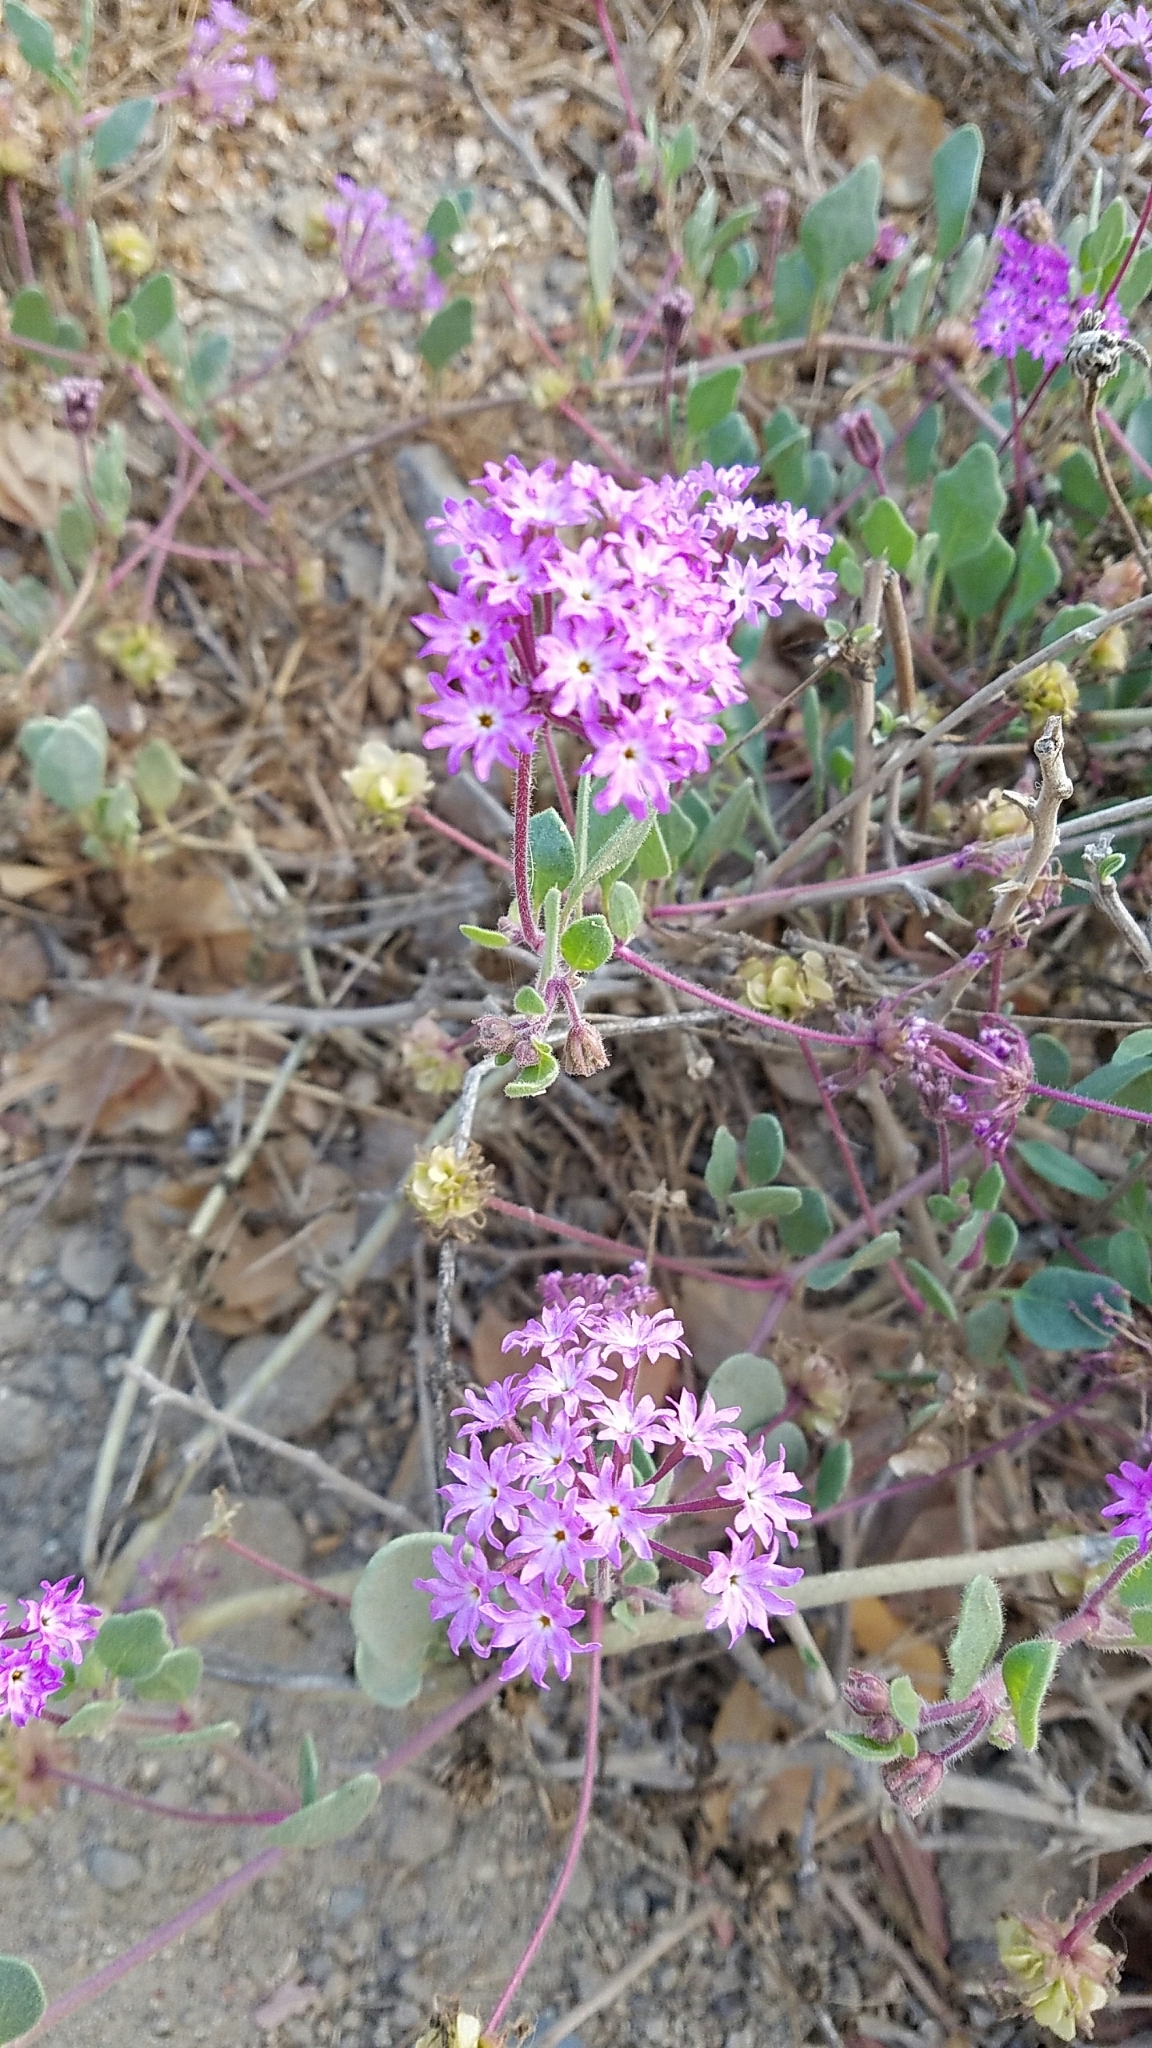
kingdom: Plantae
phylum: Tracheophyta
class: Magnoliopsida
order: Caryophyllales
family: Nyctaginaceae
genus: Abronia
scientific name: Abronia umbellata
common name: Sand-verbena
